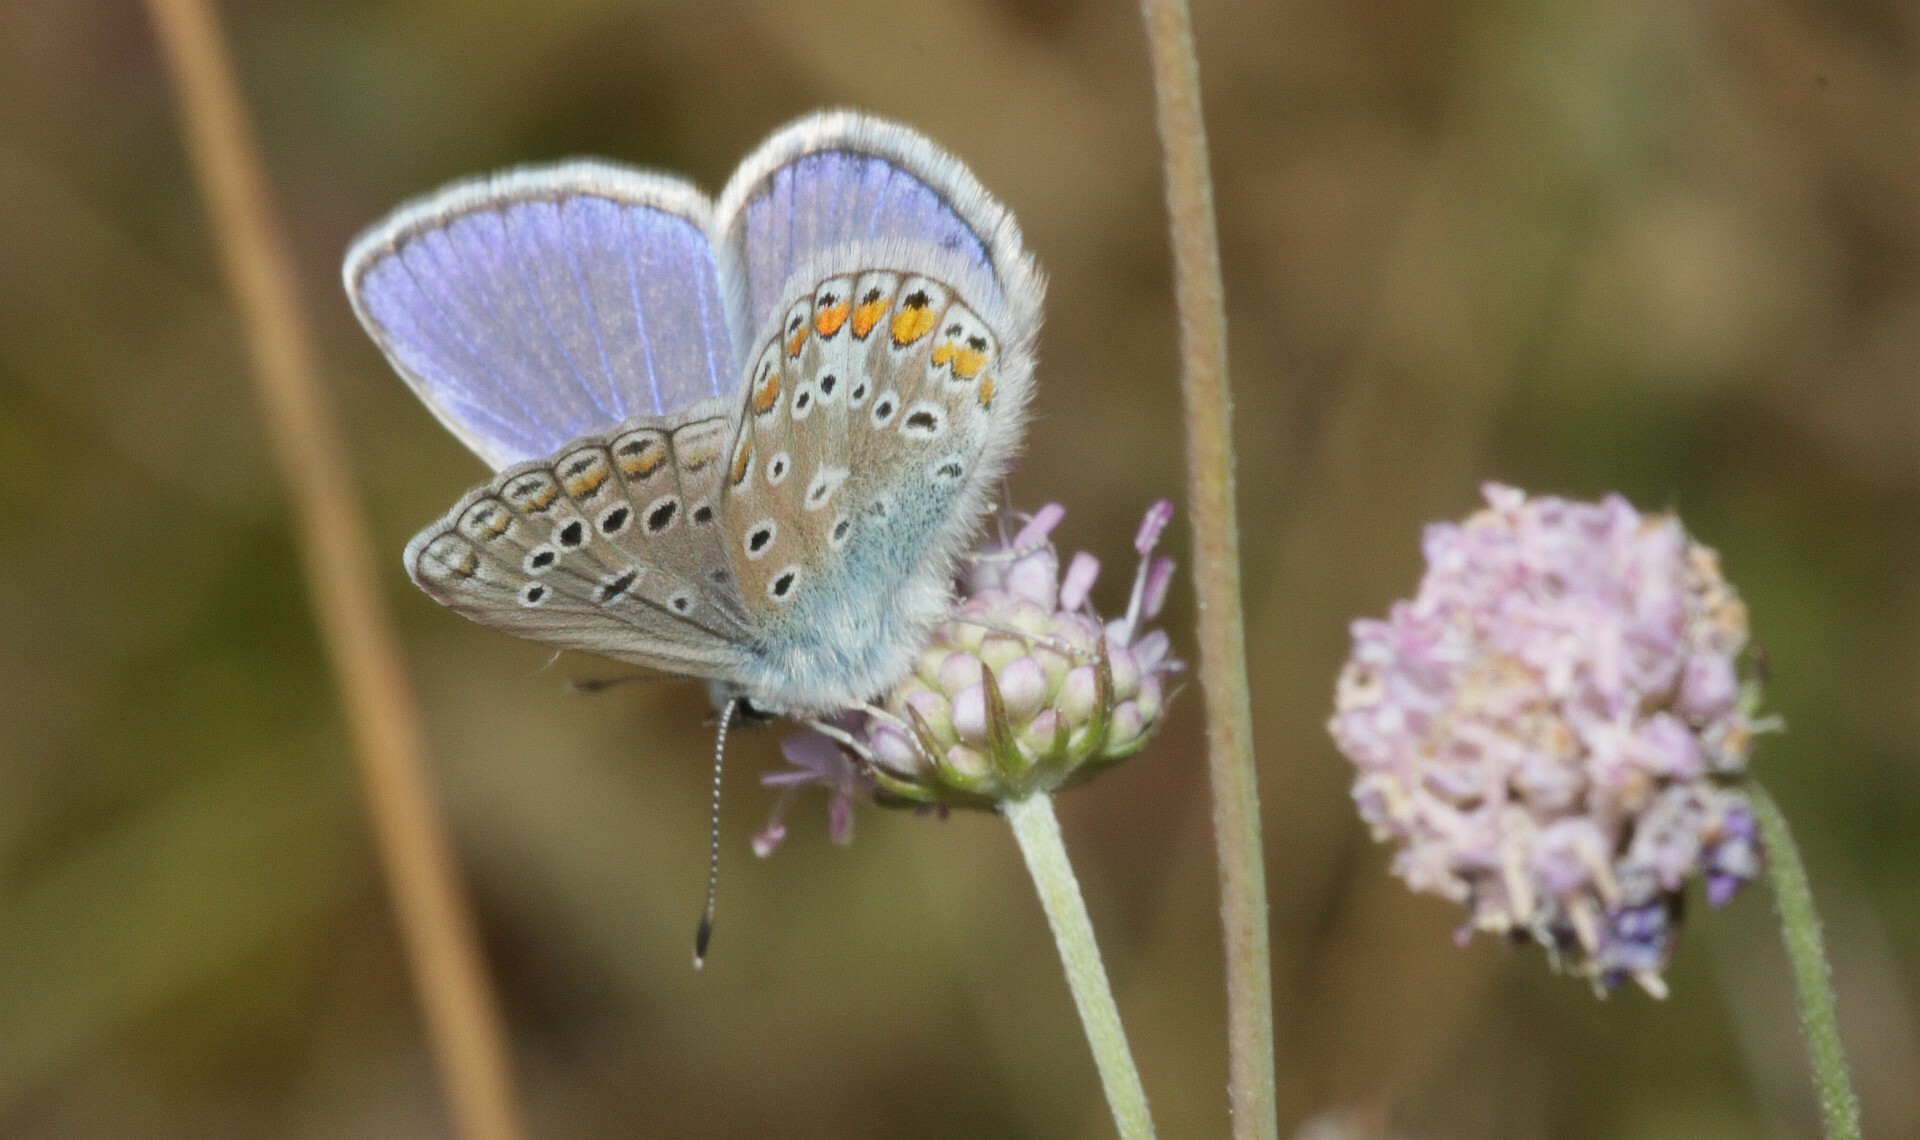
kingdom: Animalia
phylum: Arthropoda
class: Insecta
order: Lepidoptera
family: Lycaenidae
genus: Polyommatus
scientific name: Polyommatus icarus
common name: Common blue
